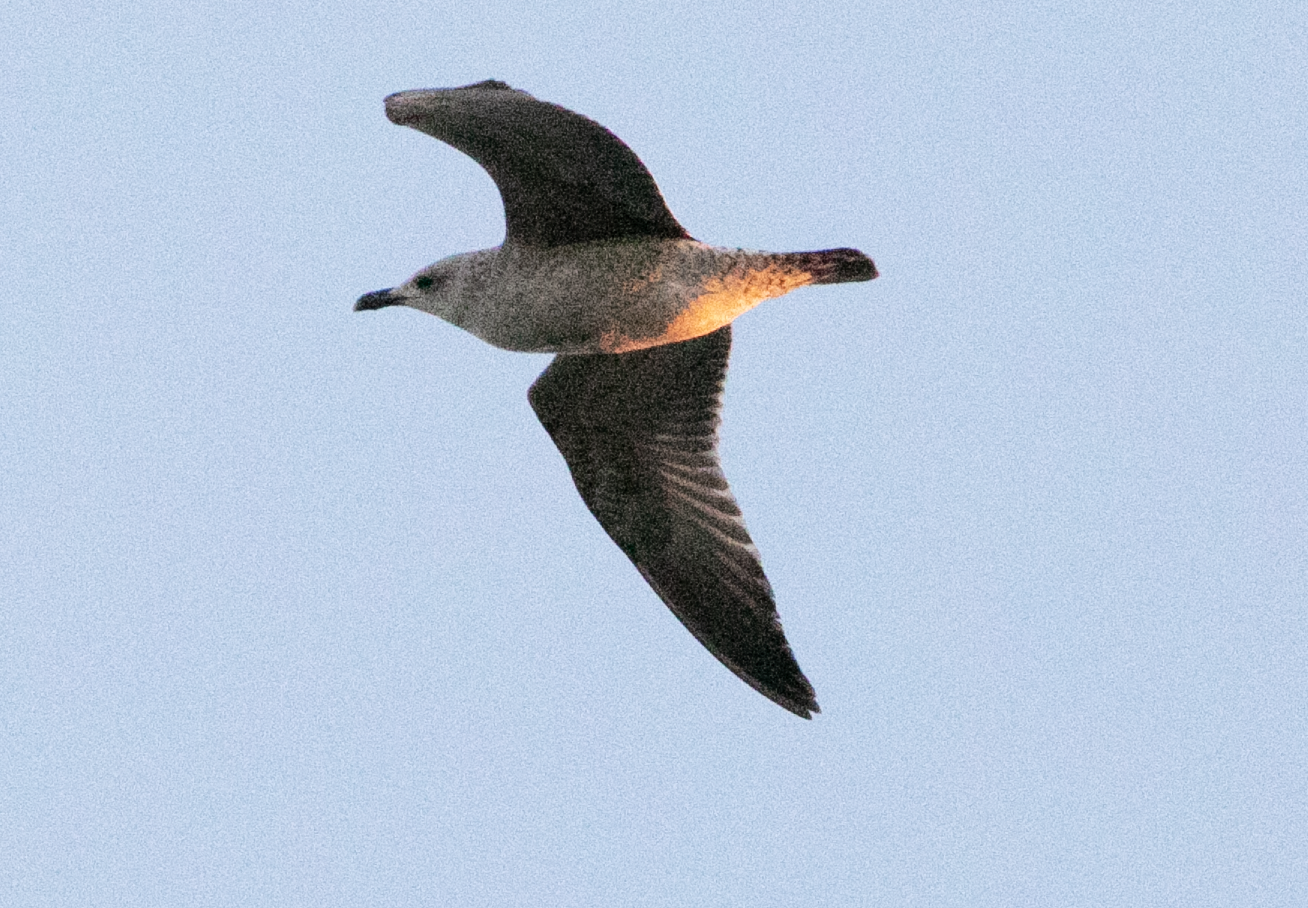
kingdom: Animalia
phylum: Chordata
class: Aves
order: Charadriiformes
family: Laridae
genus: Larus
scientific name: Larus michahellis
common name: Yellow-legged gull
